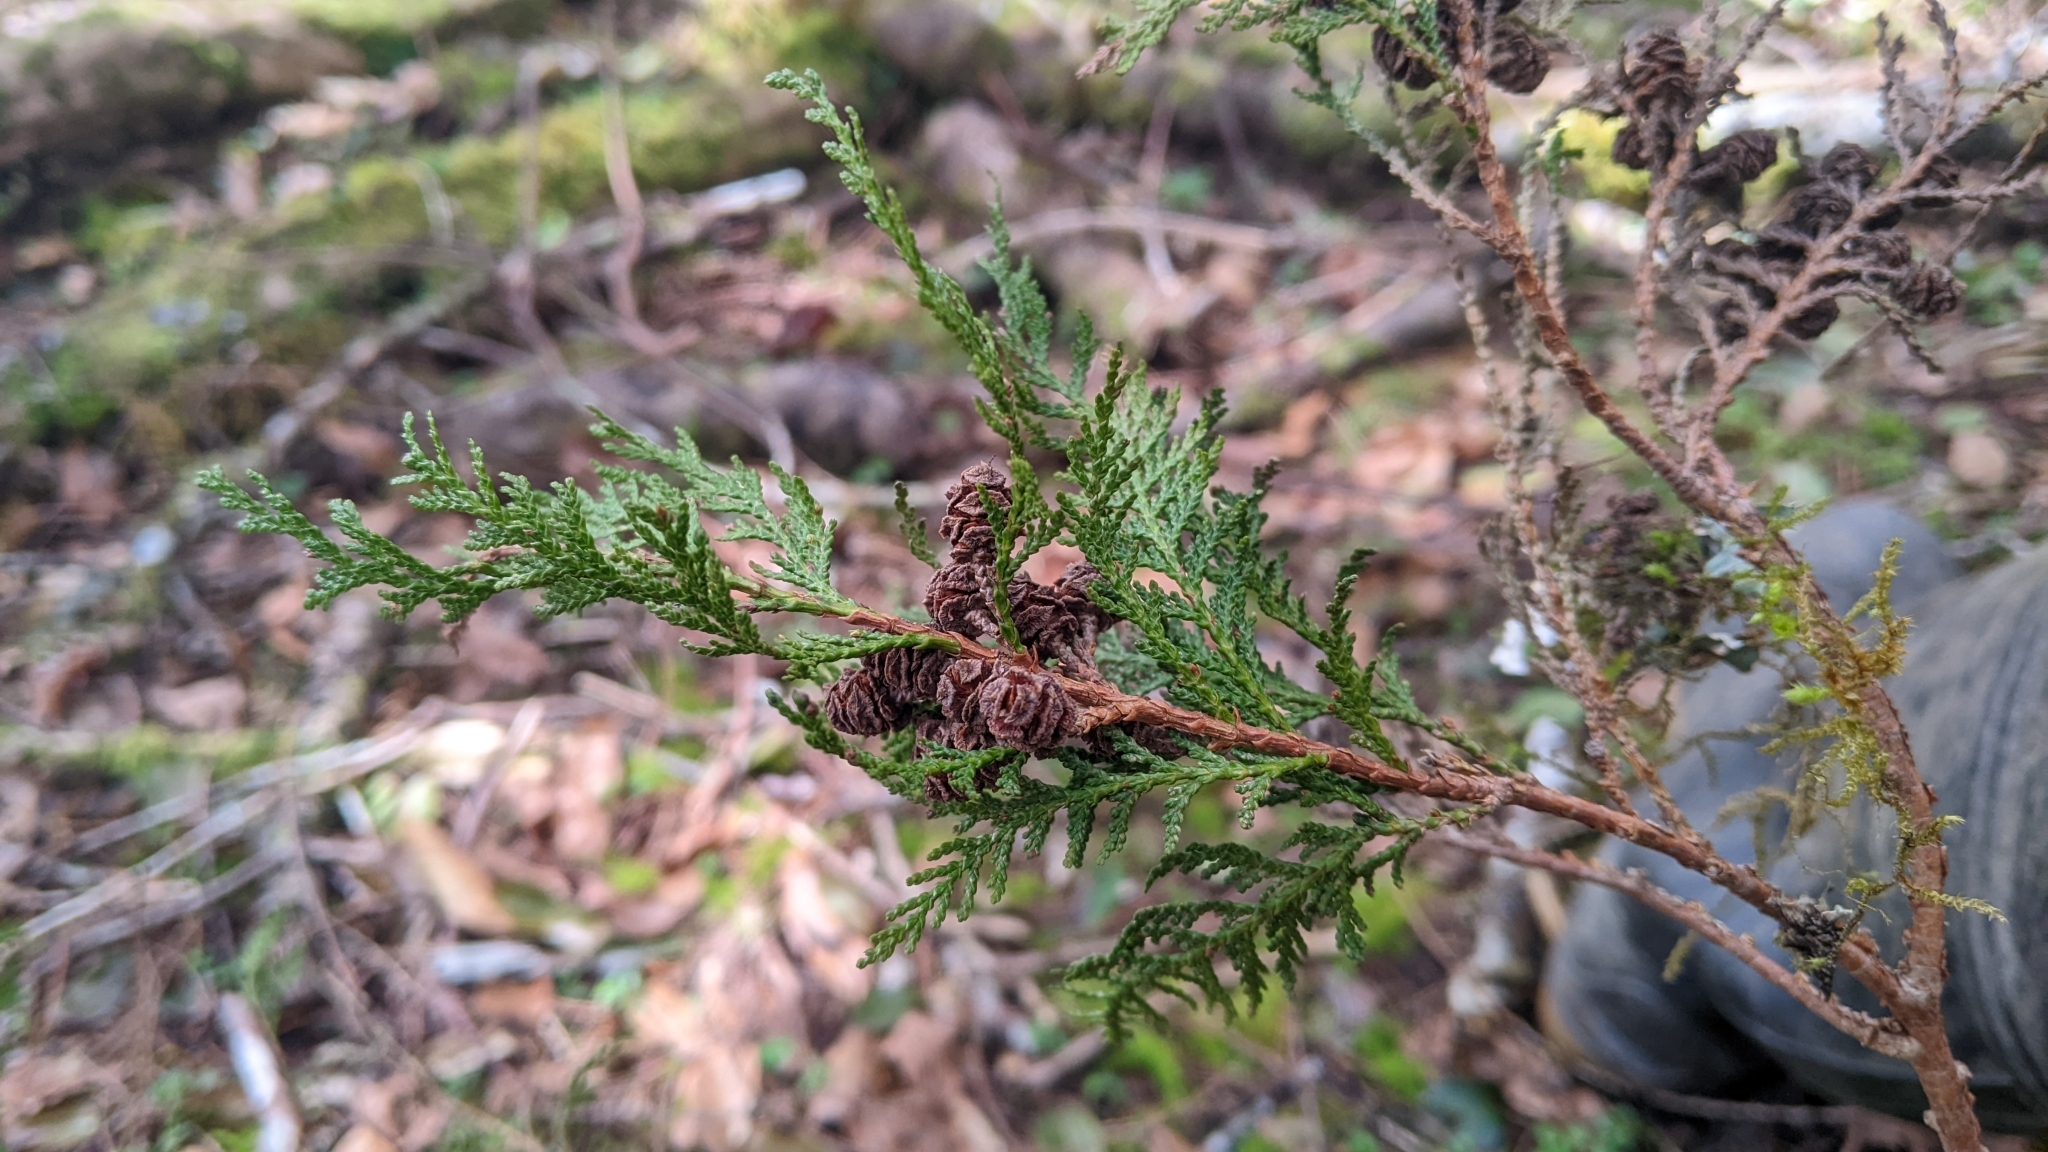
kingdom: Plantae
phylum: Tracheophyta
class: Pinopsida
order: Pinales
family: Cupressaceae
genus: Chamaecyparis
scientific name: Chamaecyparis formosensis
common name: Formosan cypress
